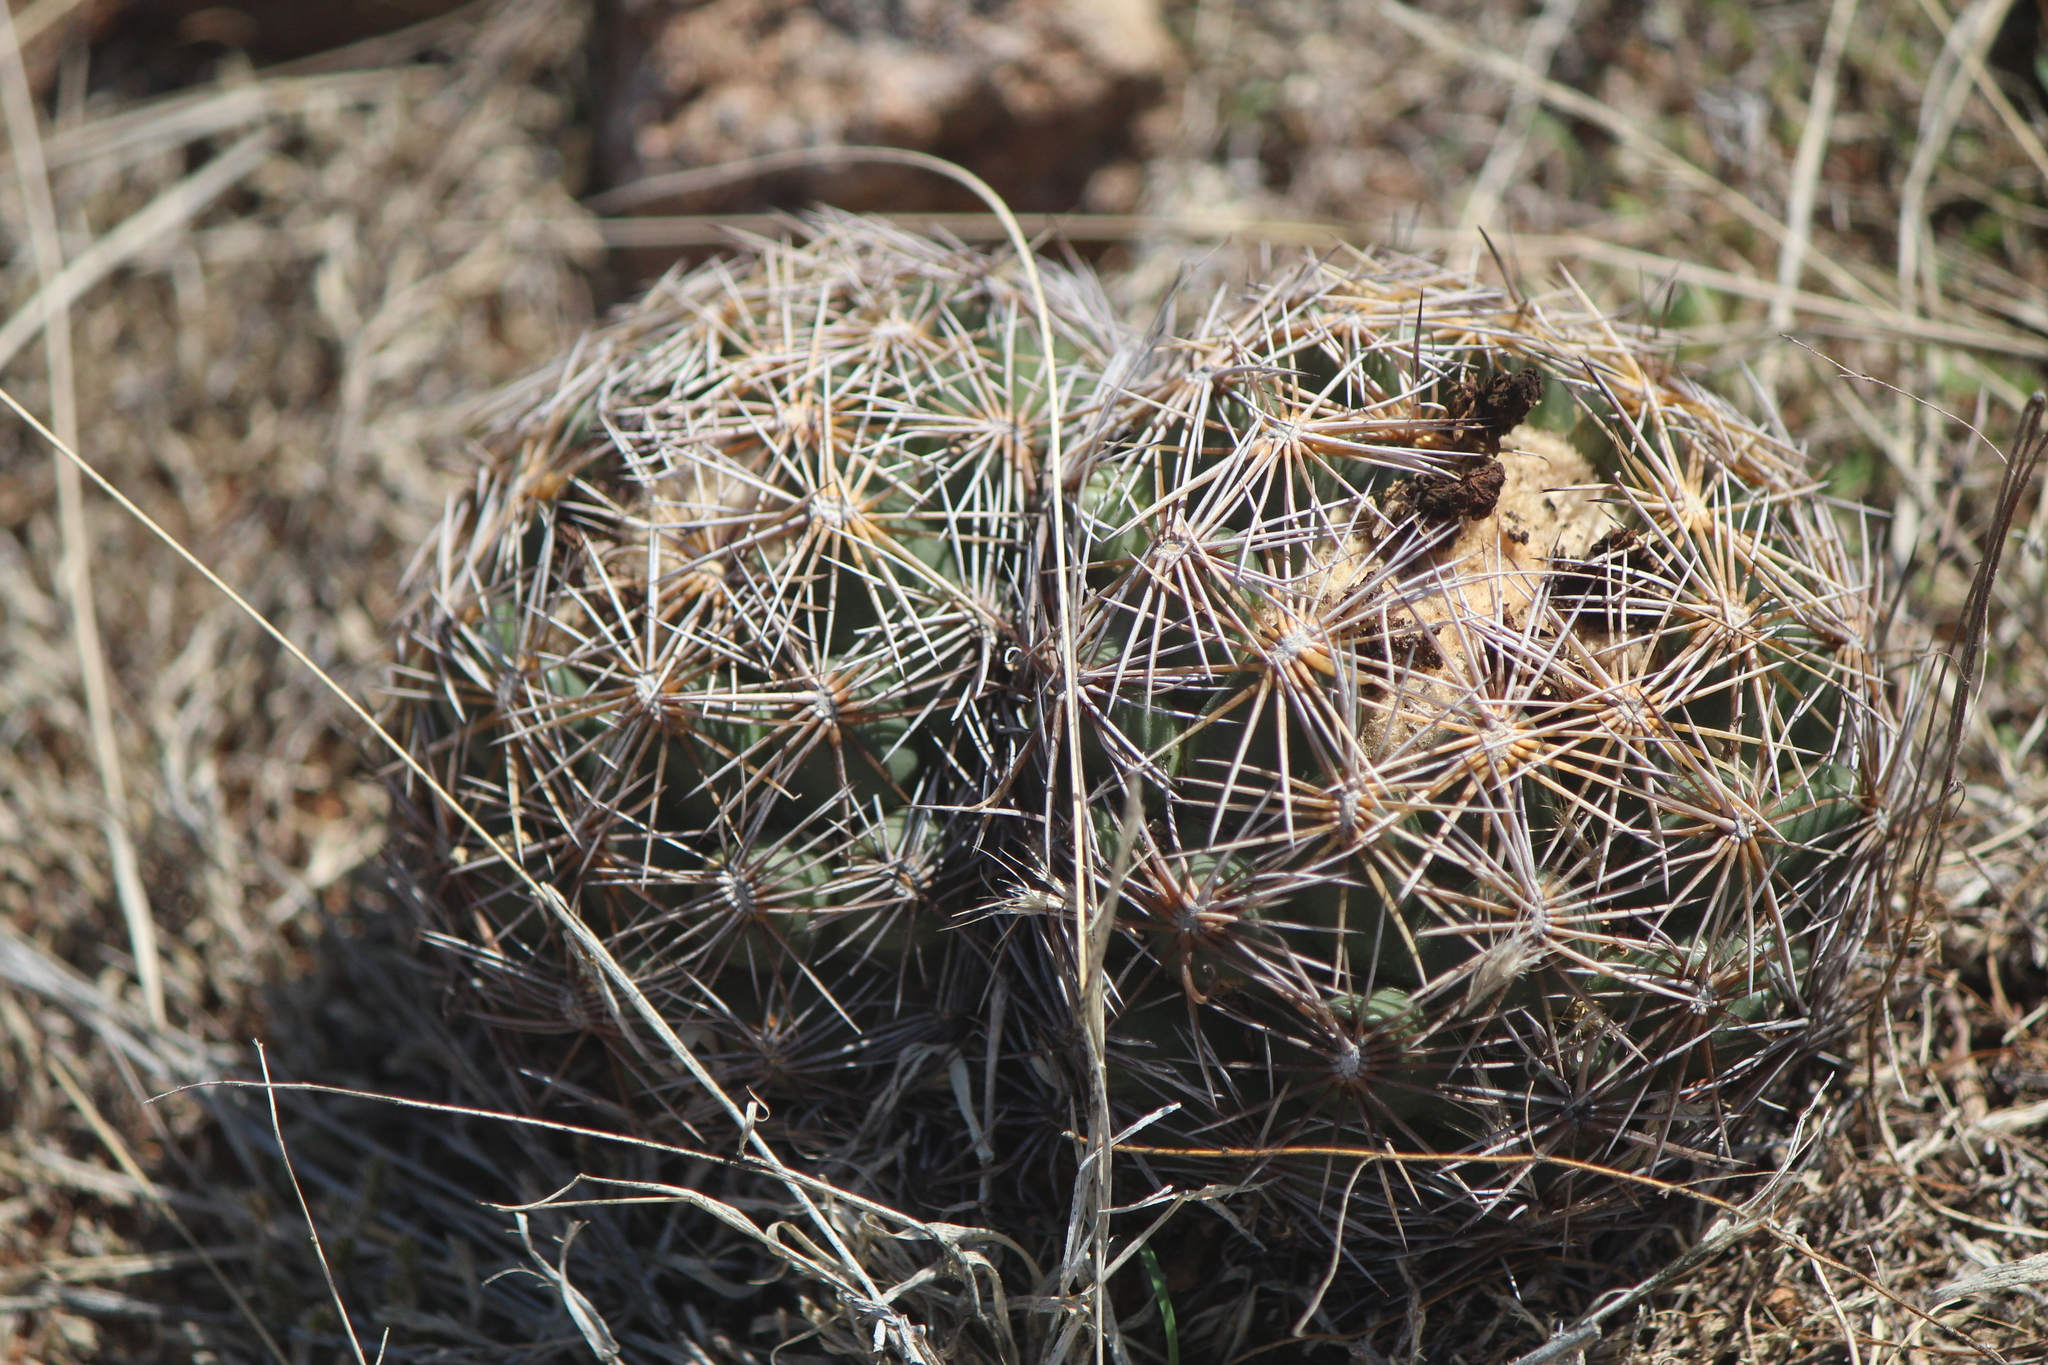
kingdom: Plantae
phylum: Tracheophyta
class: Magnoliopsida
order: Caryophyllales
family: Cactaceae
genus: Coryphantha
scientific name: Coryphantha cornifera
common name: Rhinoceros cactus
